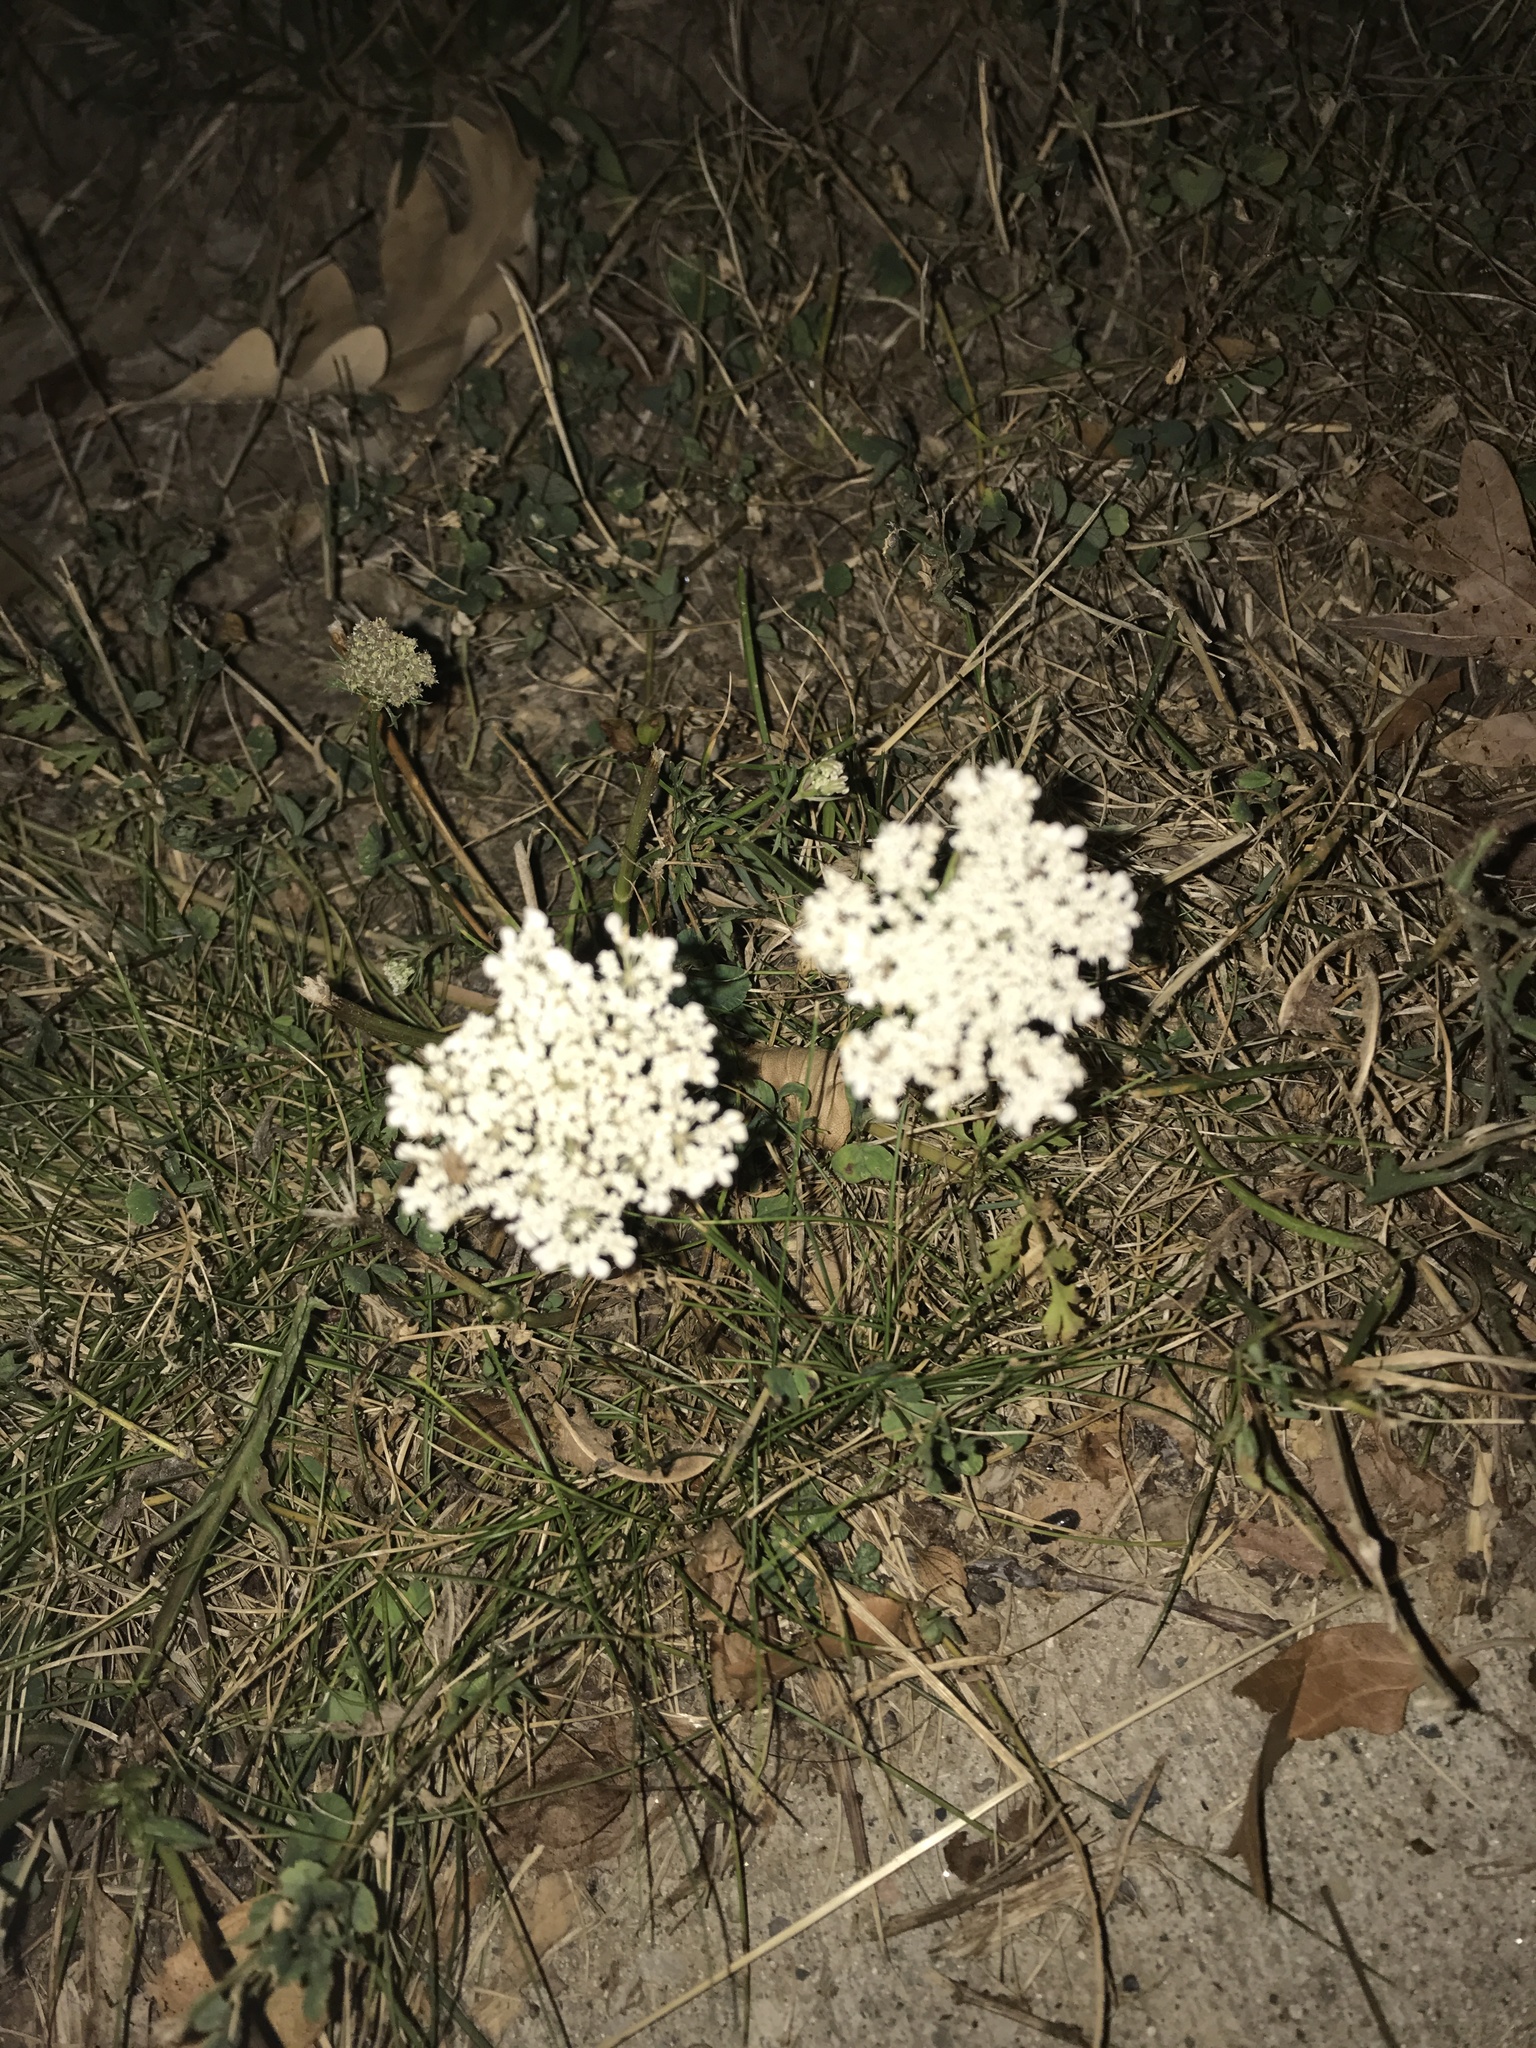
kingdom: Plantae
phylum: Tracheophyta
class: Magnoliopsida
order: Apiales
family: Apiaceae
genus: Daucus
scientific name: Daucus carota
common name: Wild carrot
